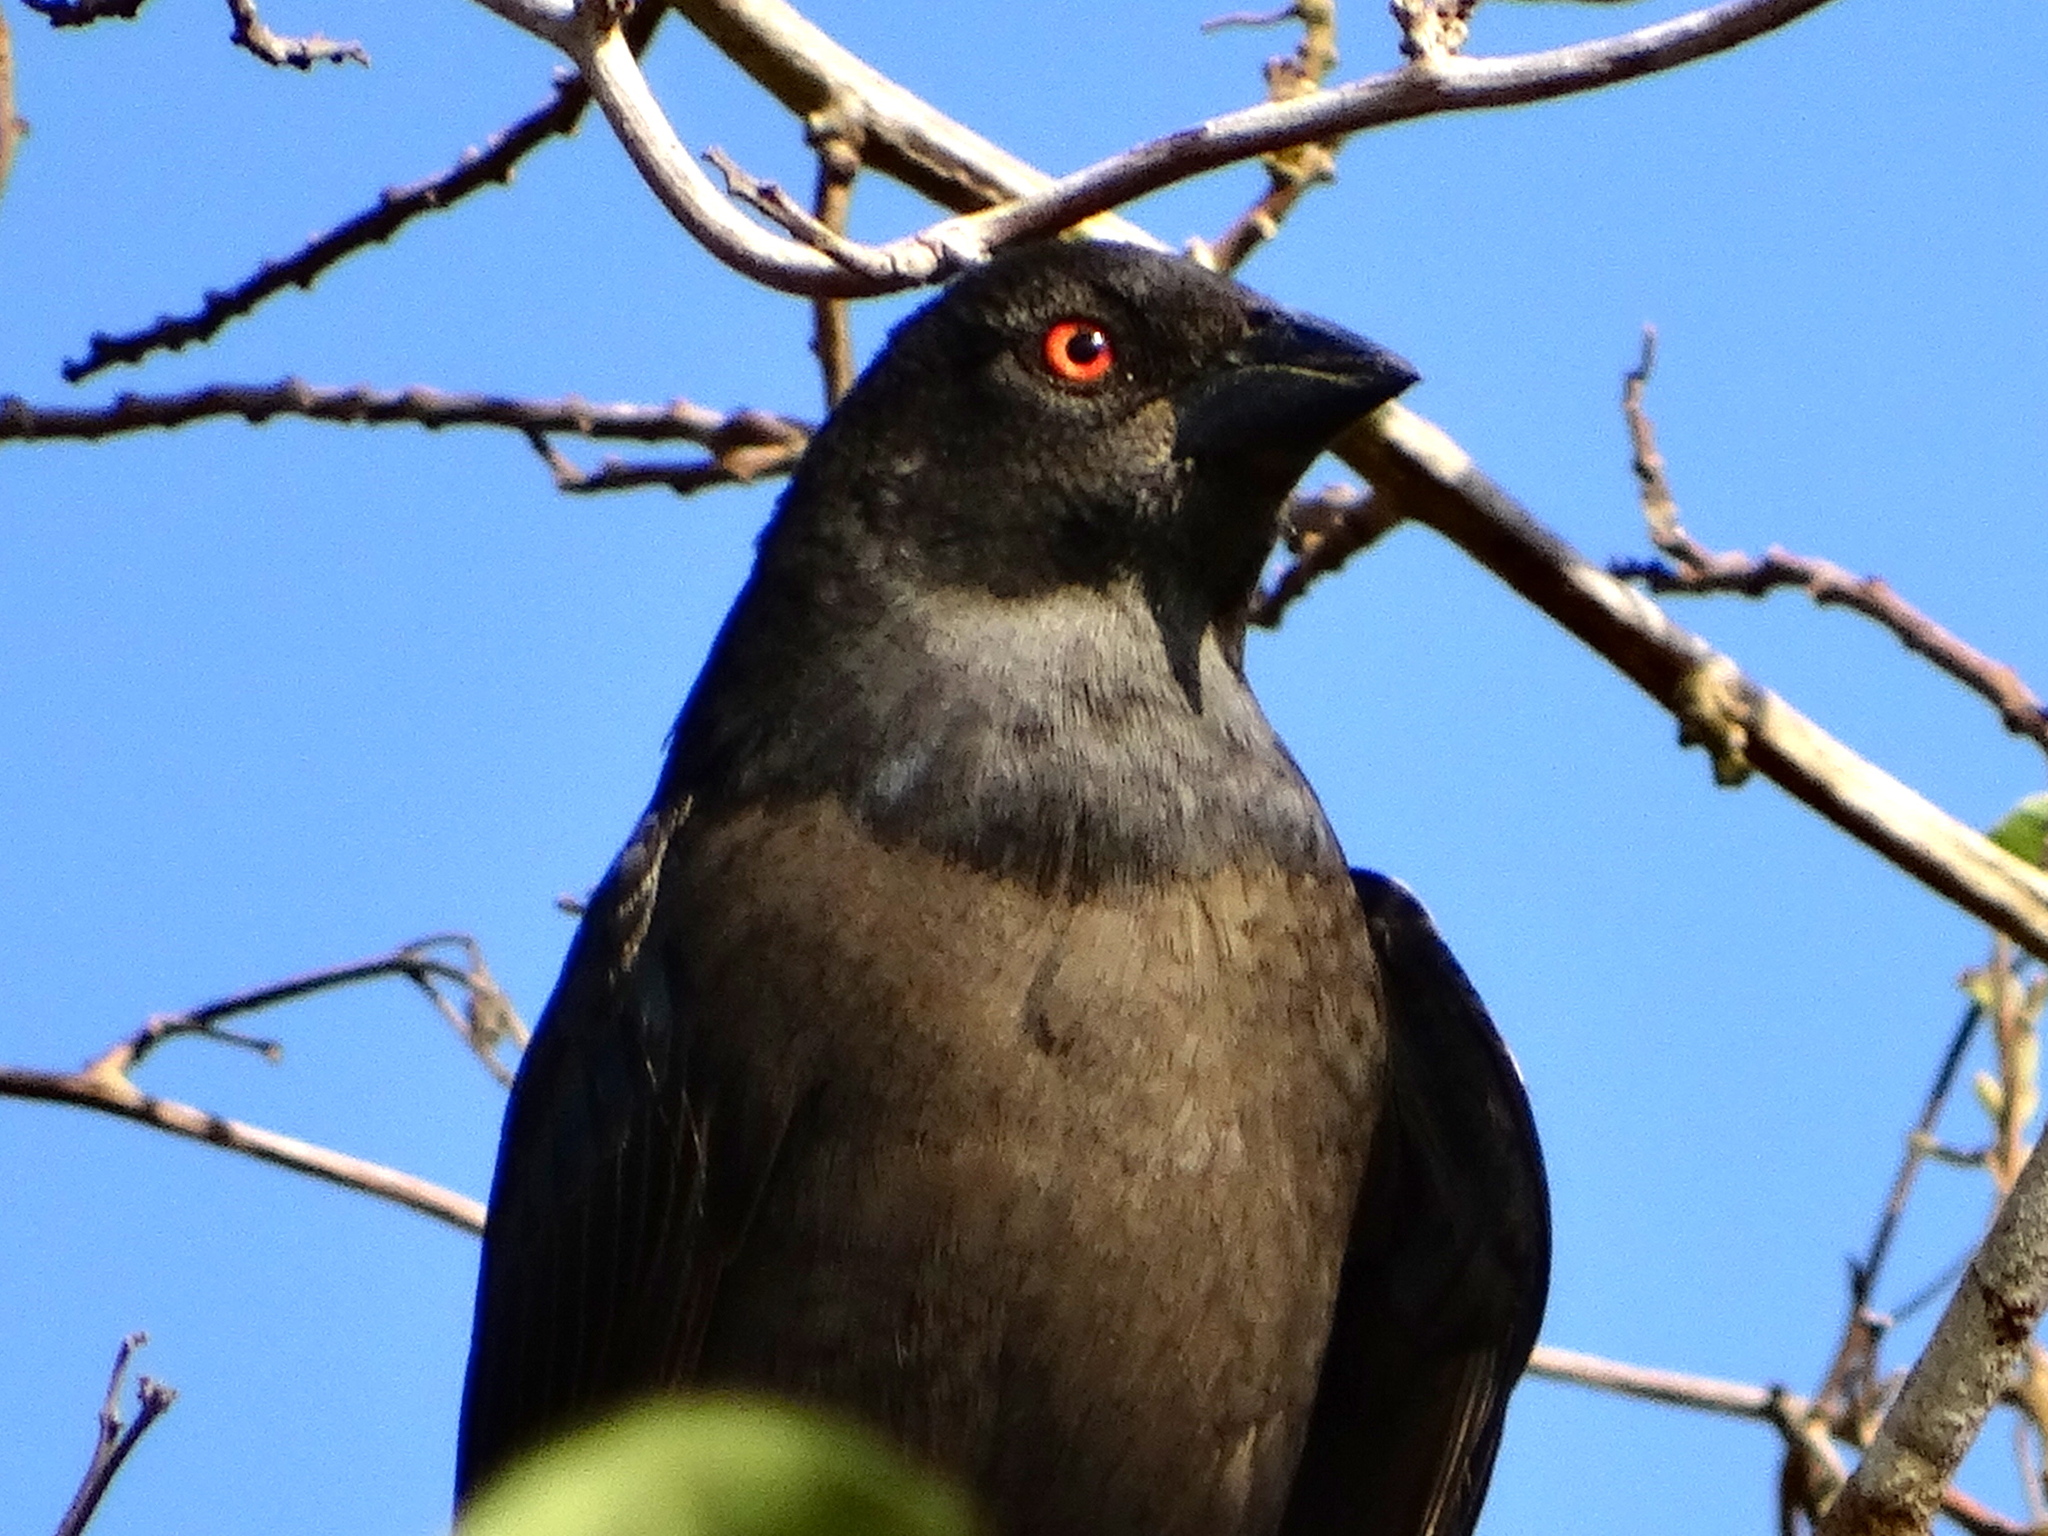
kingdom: Animalia
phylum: Chordata
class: Aves
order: Passeriformes
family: Icteridae
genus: Molothrus
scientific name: Molothrus aeneus
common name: Bronzed cowbird
